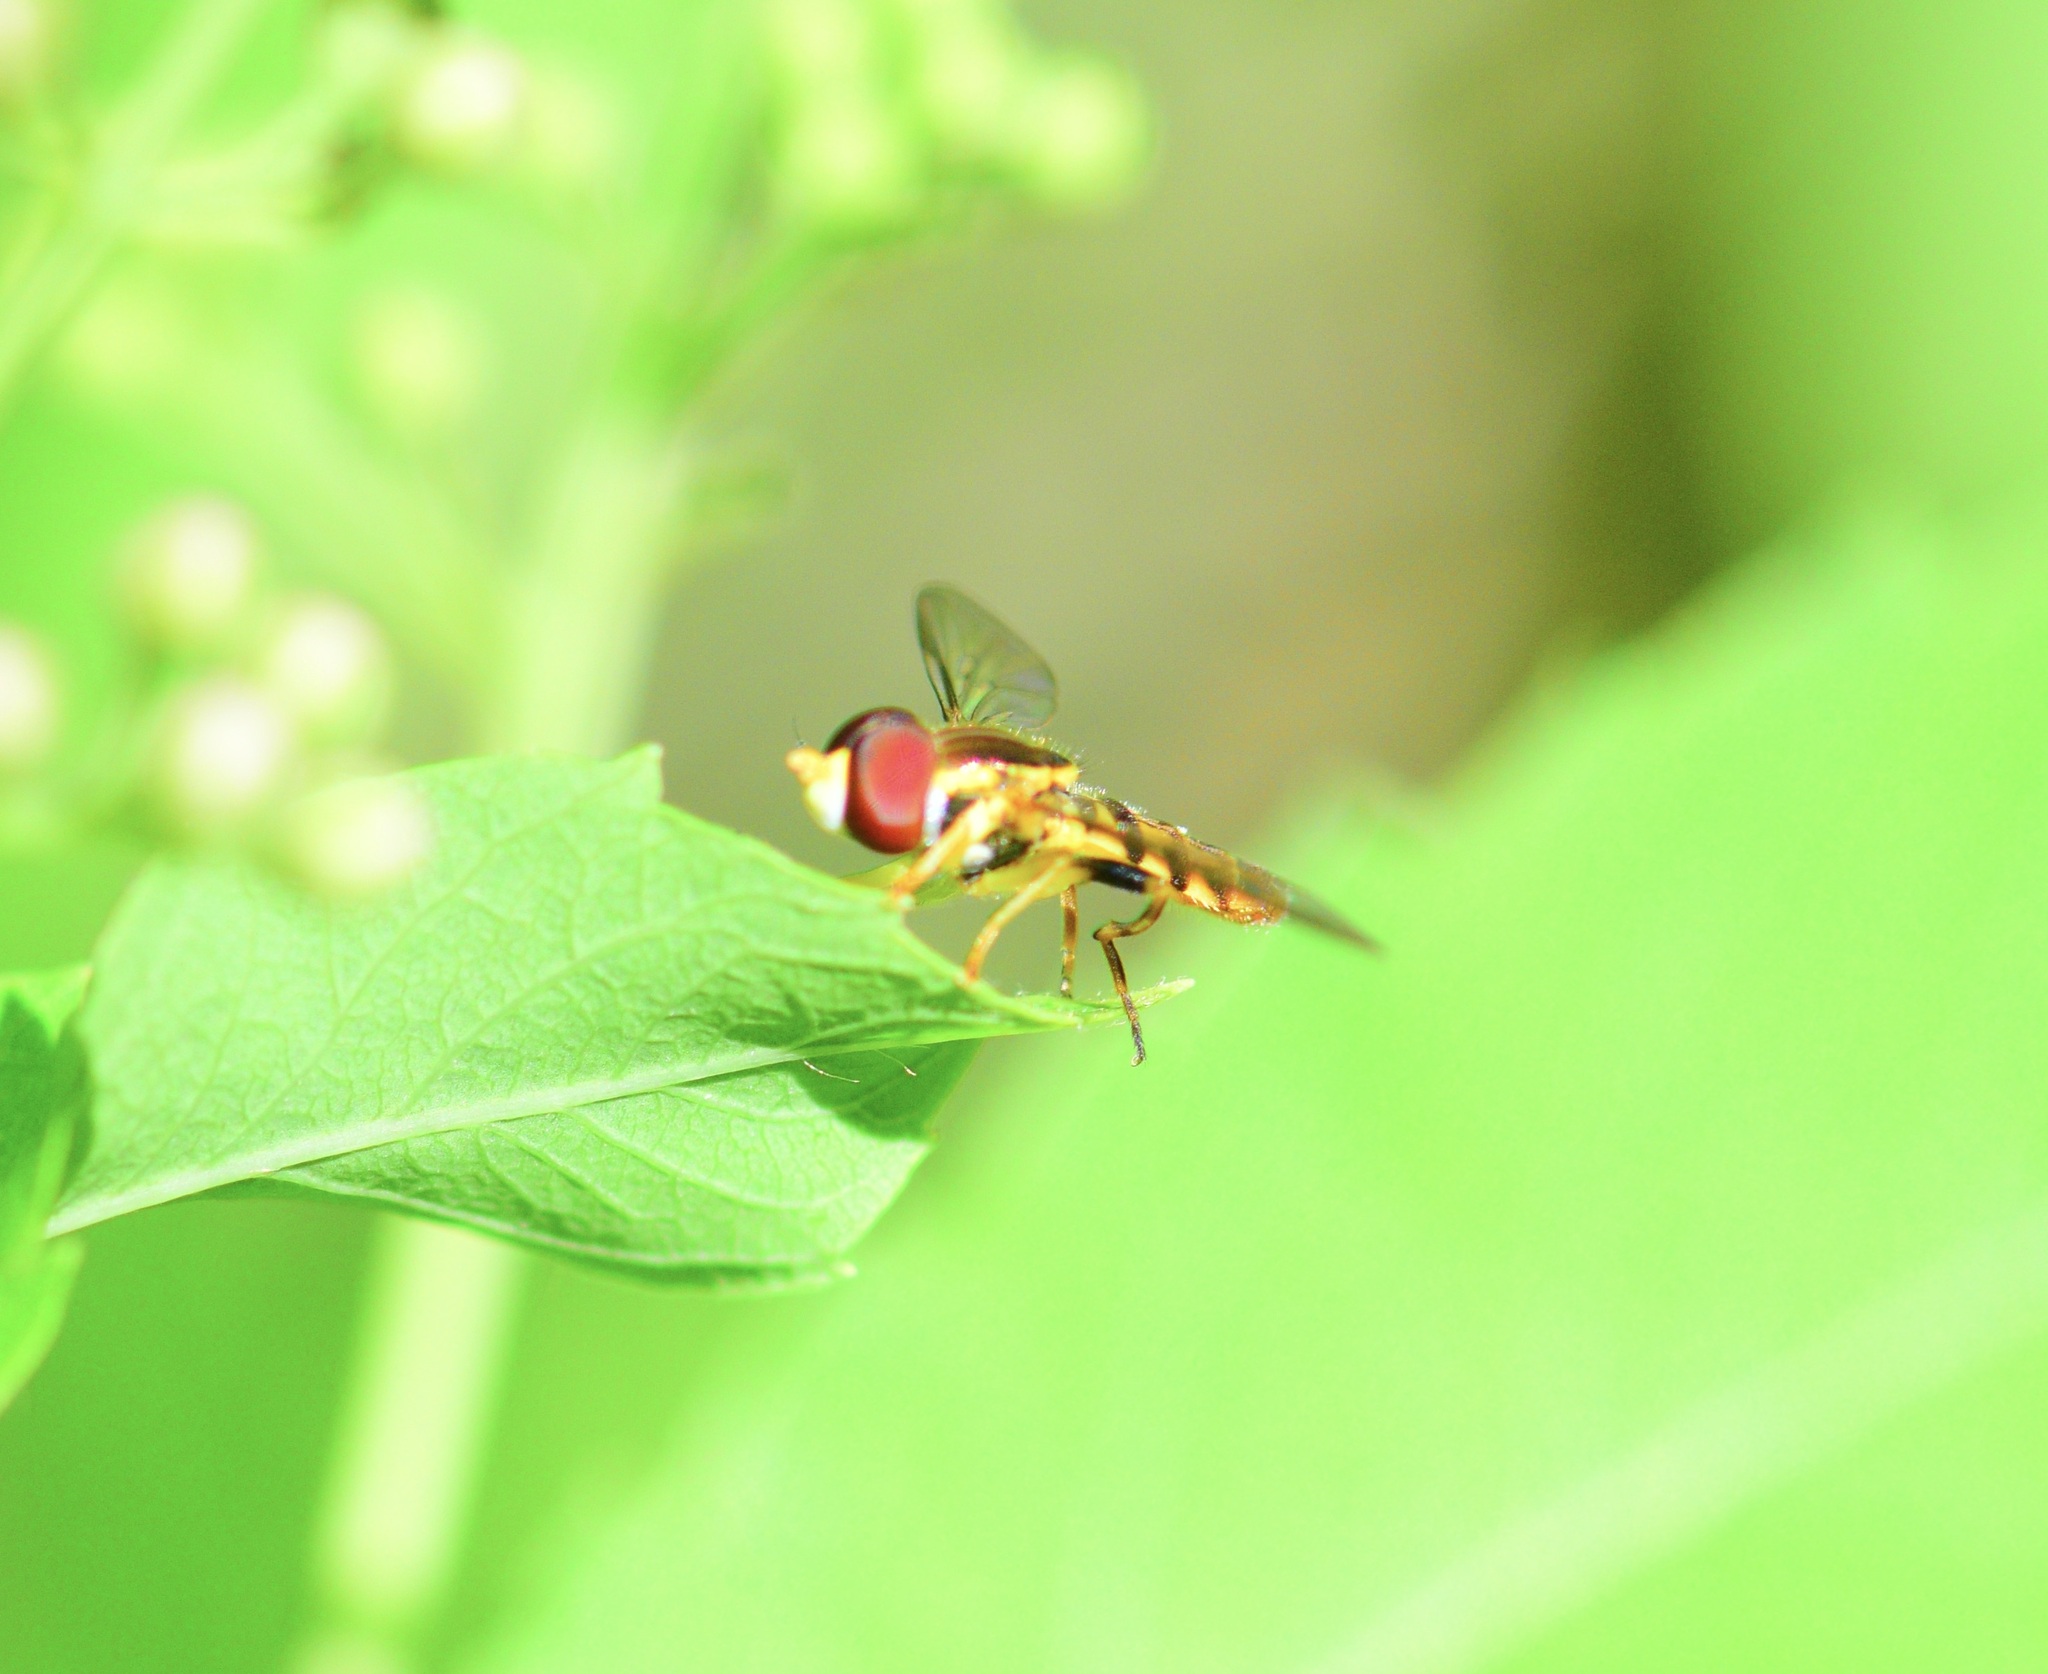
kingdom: Animalia
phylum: Arthropoda
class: Insecta
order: Diptera
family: Syrphidae
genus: Toxomerus
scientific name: Toxomerus geminatus
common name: Eastern calligrapher
